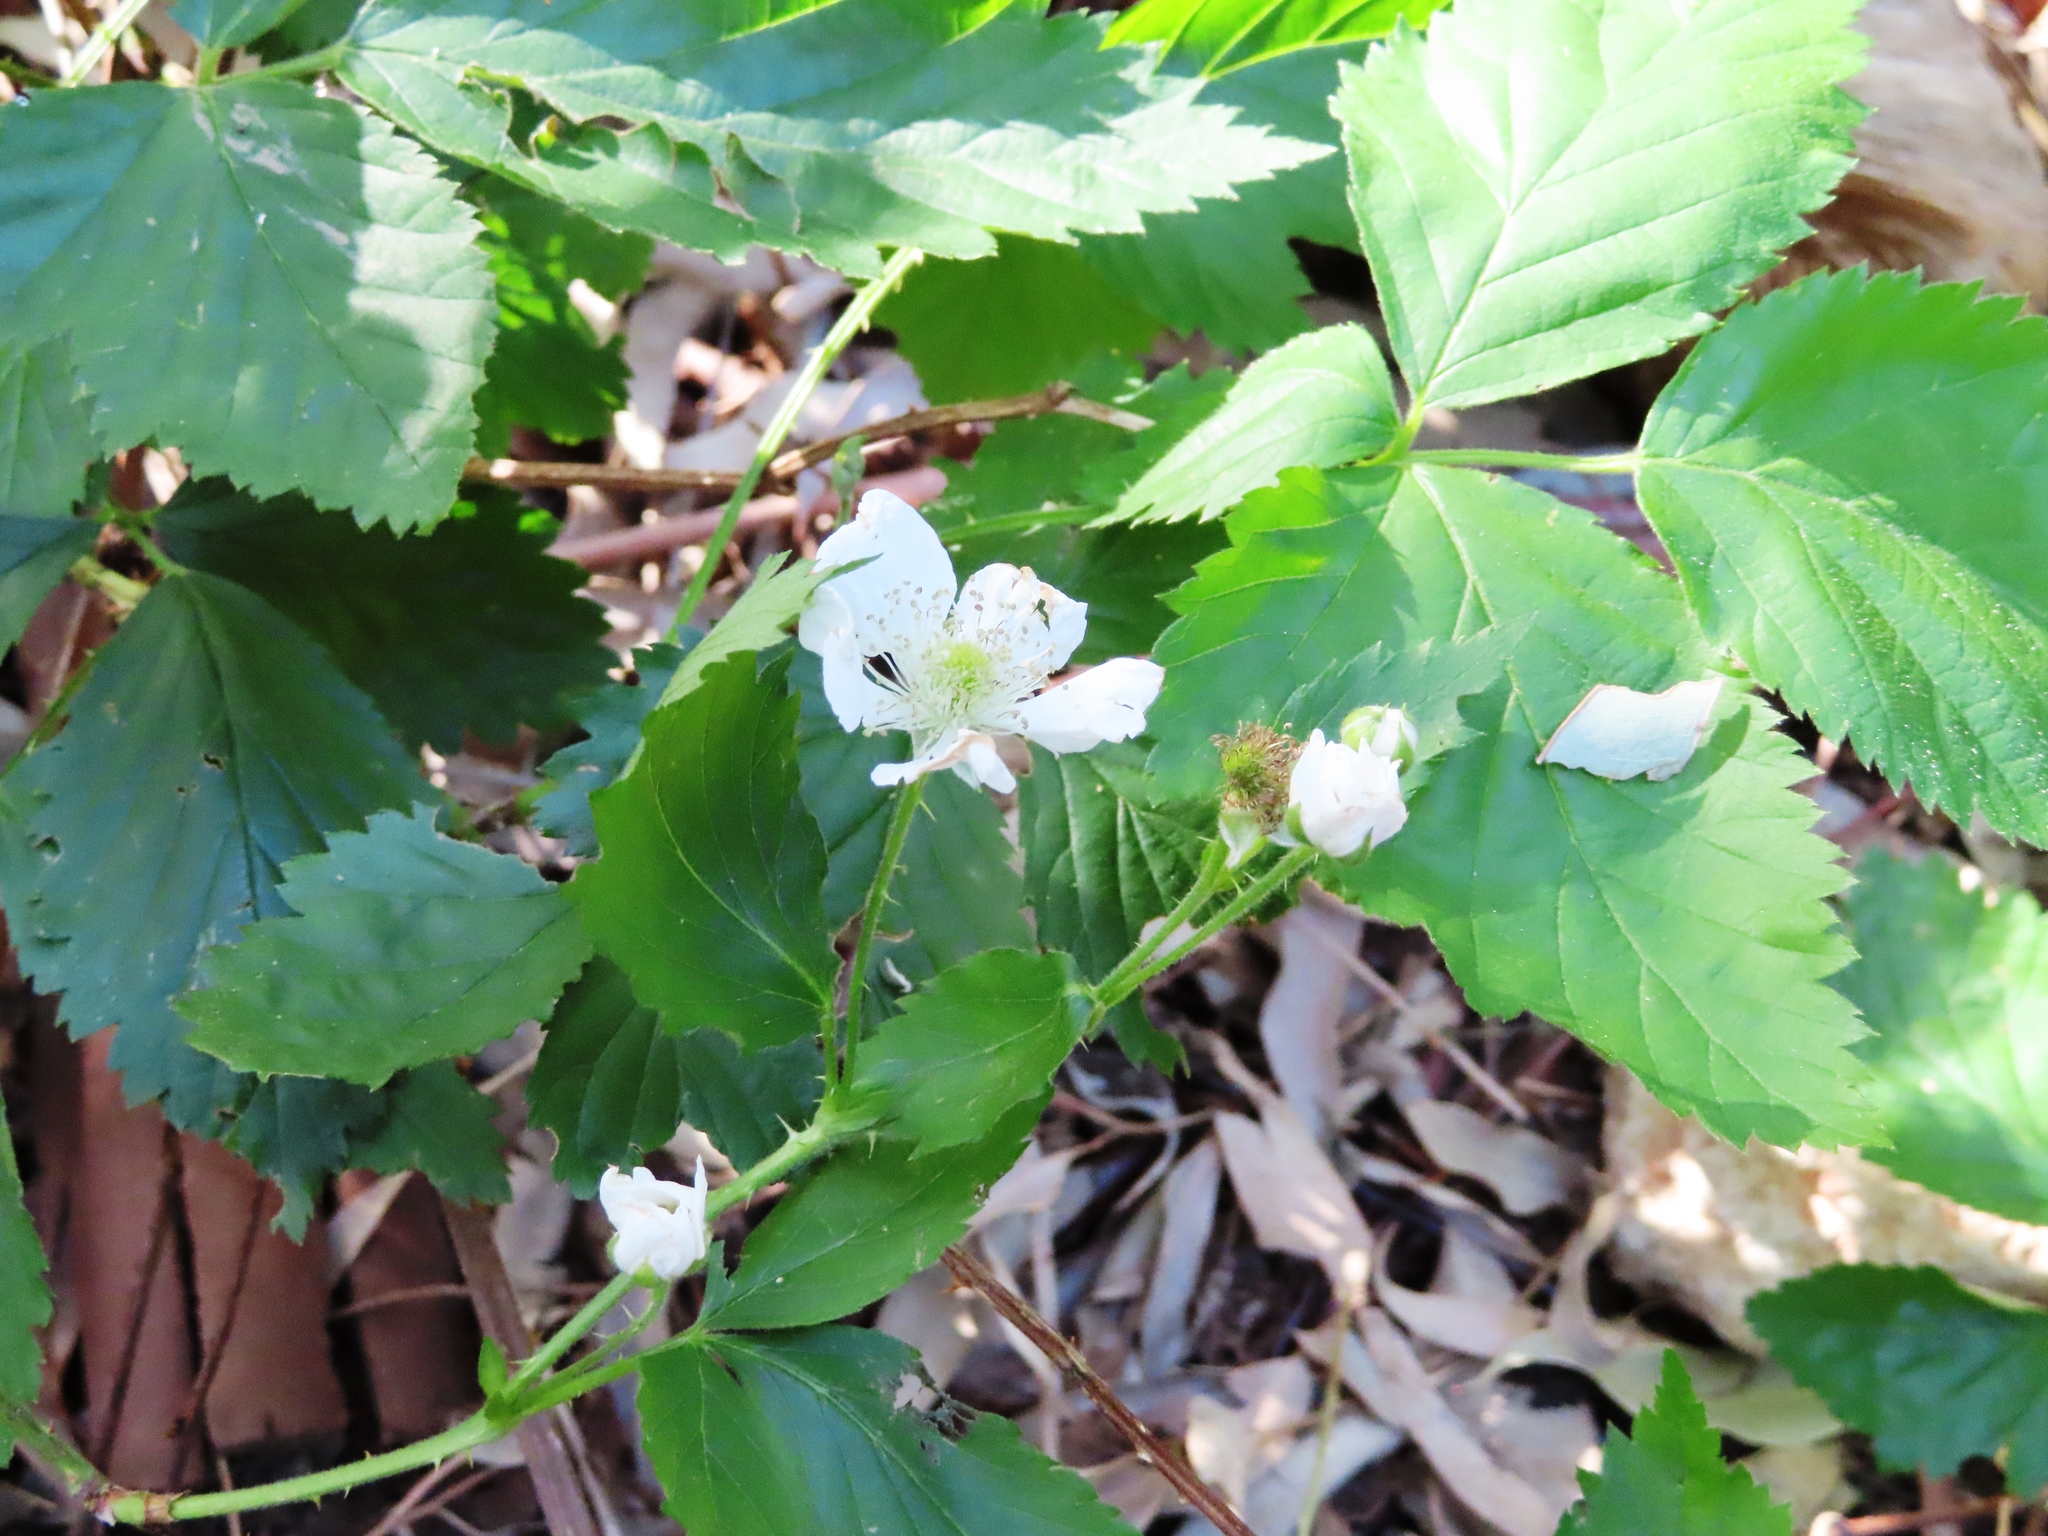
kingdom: Plantae
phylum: Tracheophyta
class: Magnoliopsida
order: Rosales
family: Rosaceae
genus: Rubus
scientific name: Rubus affinis
